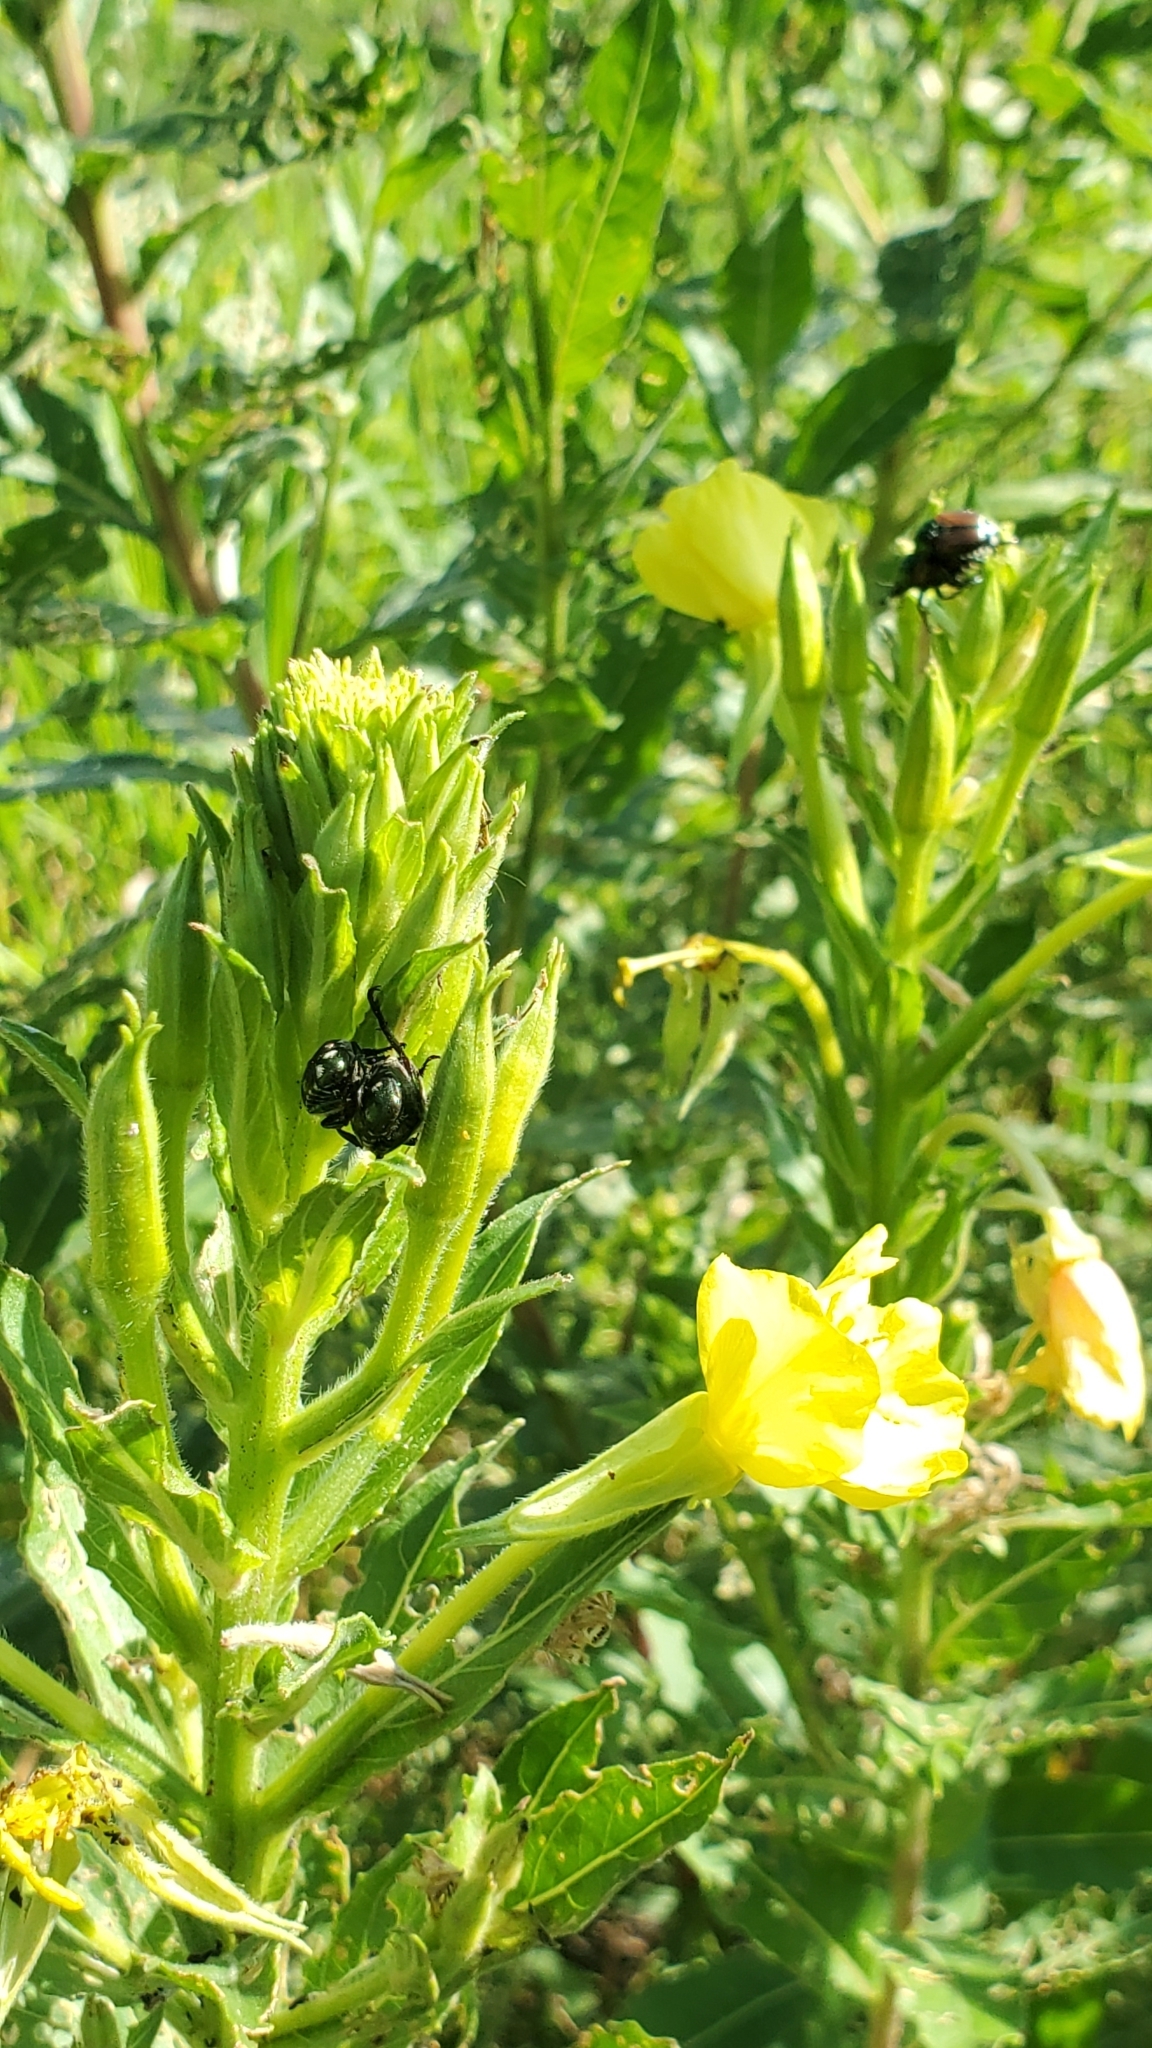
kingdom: Animalia
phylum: Arthropoda
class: Insecta
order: Coleoptera
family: Scarabaeidae
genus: Popillia
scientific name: Popillia japonica
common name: Japanese beetle
